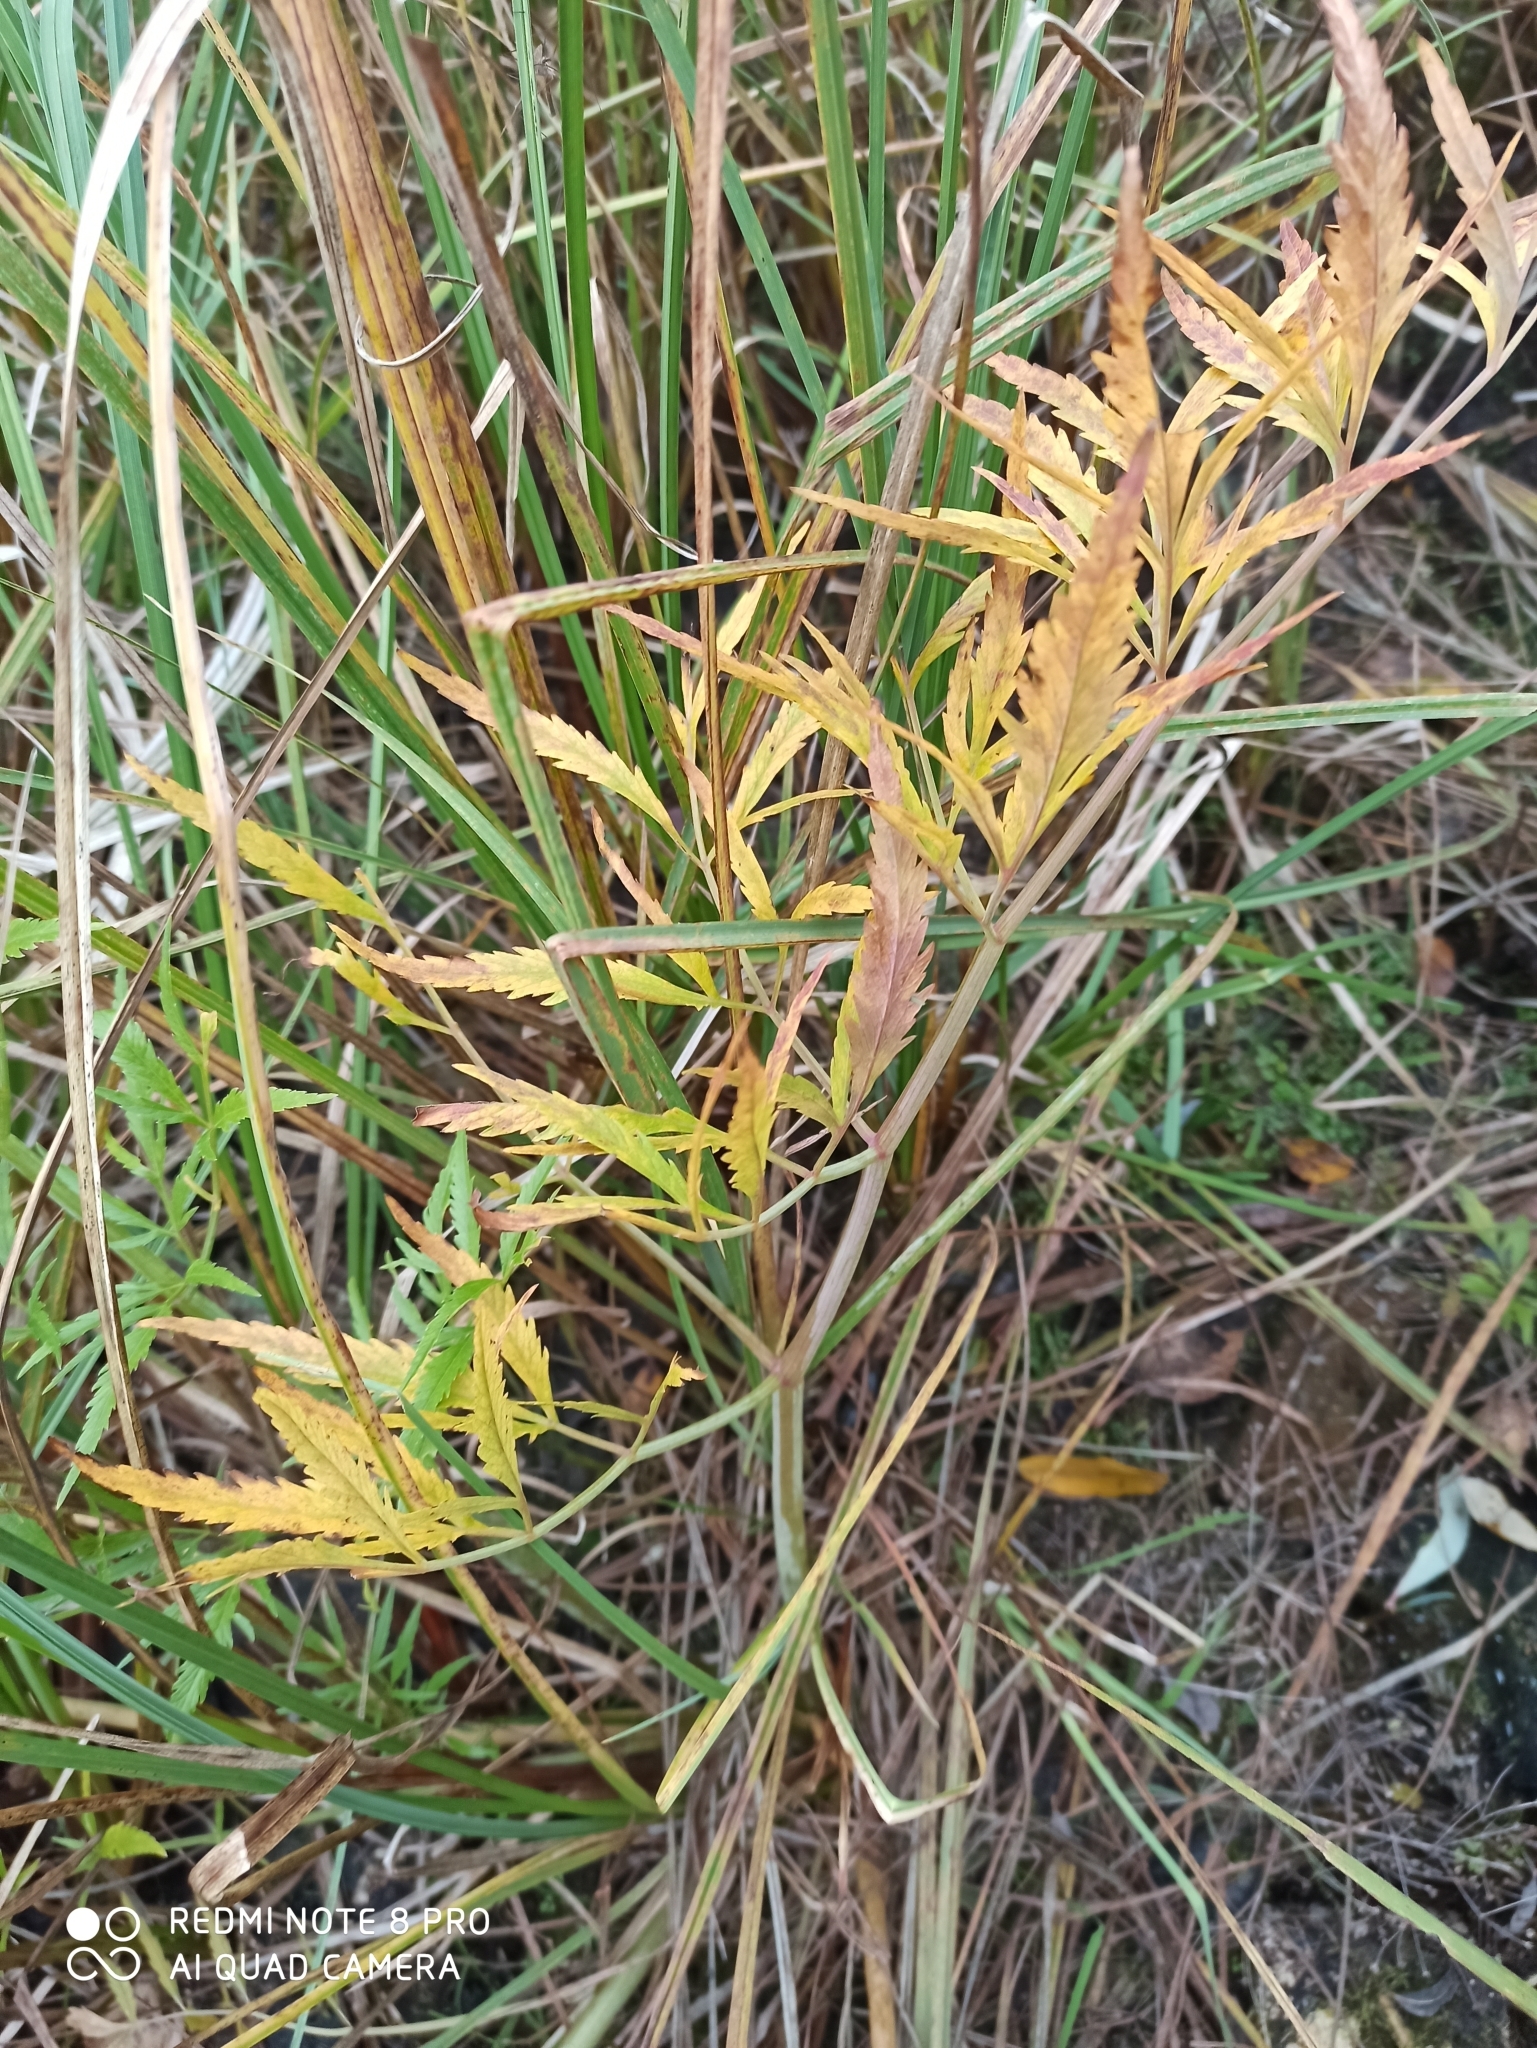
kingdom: Plantae
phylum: Tracheophyta
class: Magnoliopsida
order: Apiales
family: Apiaceae
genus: Cicuta
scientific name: Cicuta virosa
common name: Cowbane
